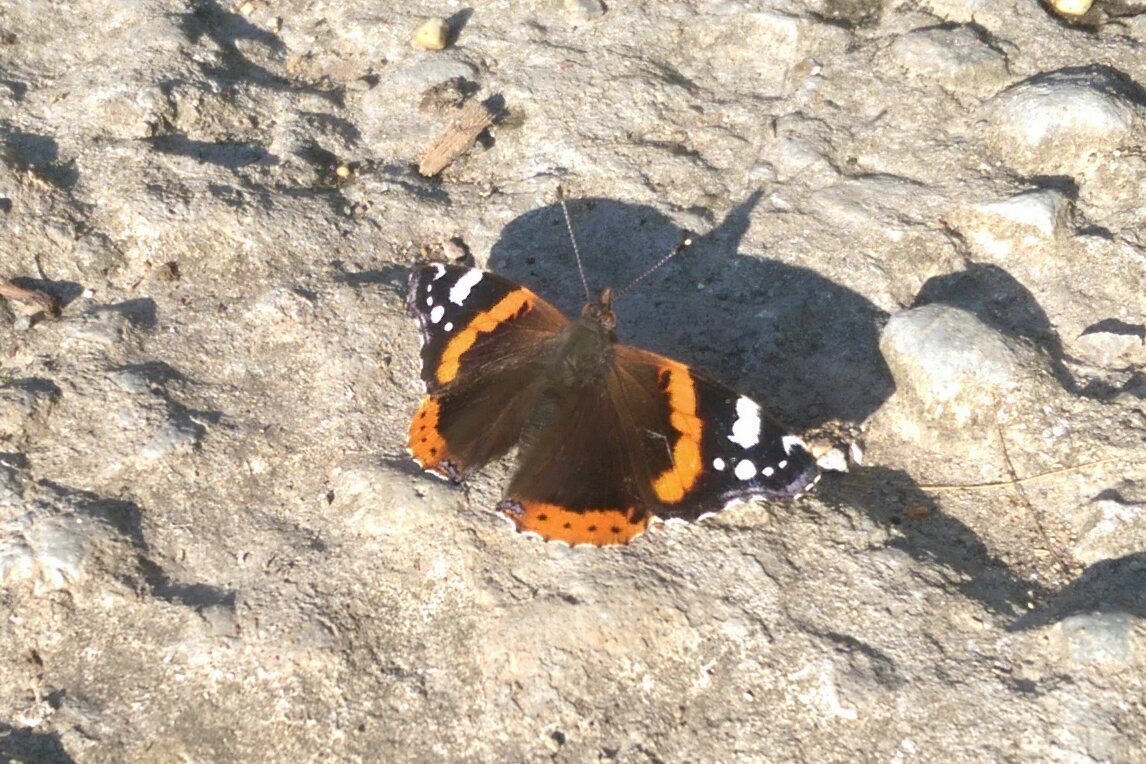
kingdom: Animalia
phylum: Arthropoda
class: Insecta
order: Lepidoptera
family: Nymphalidae
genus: Vanessa
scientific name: Vanessa atalanta
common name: Red admiral
